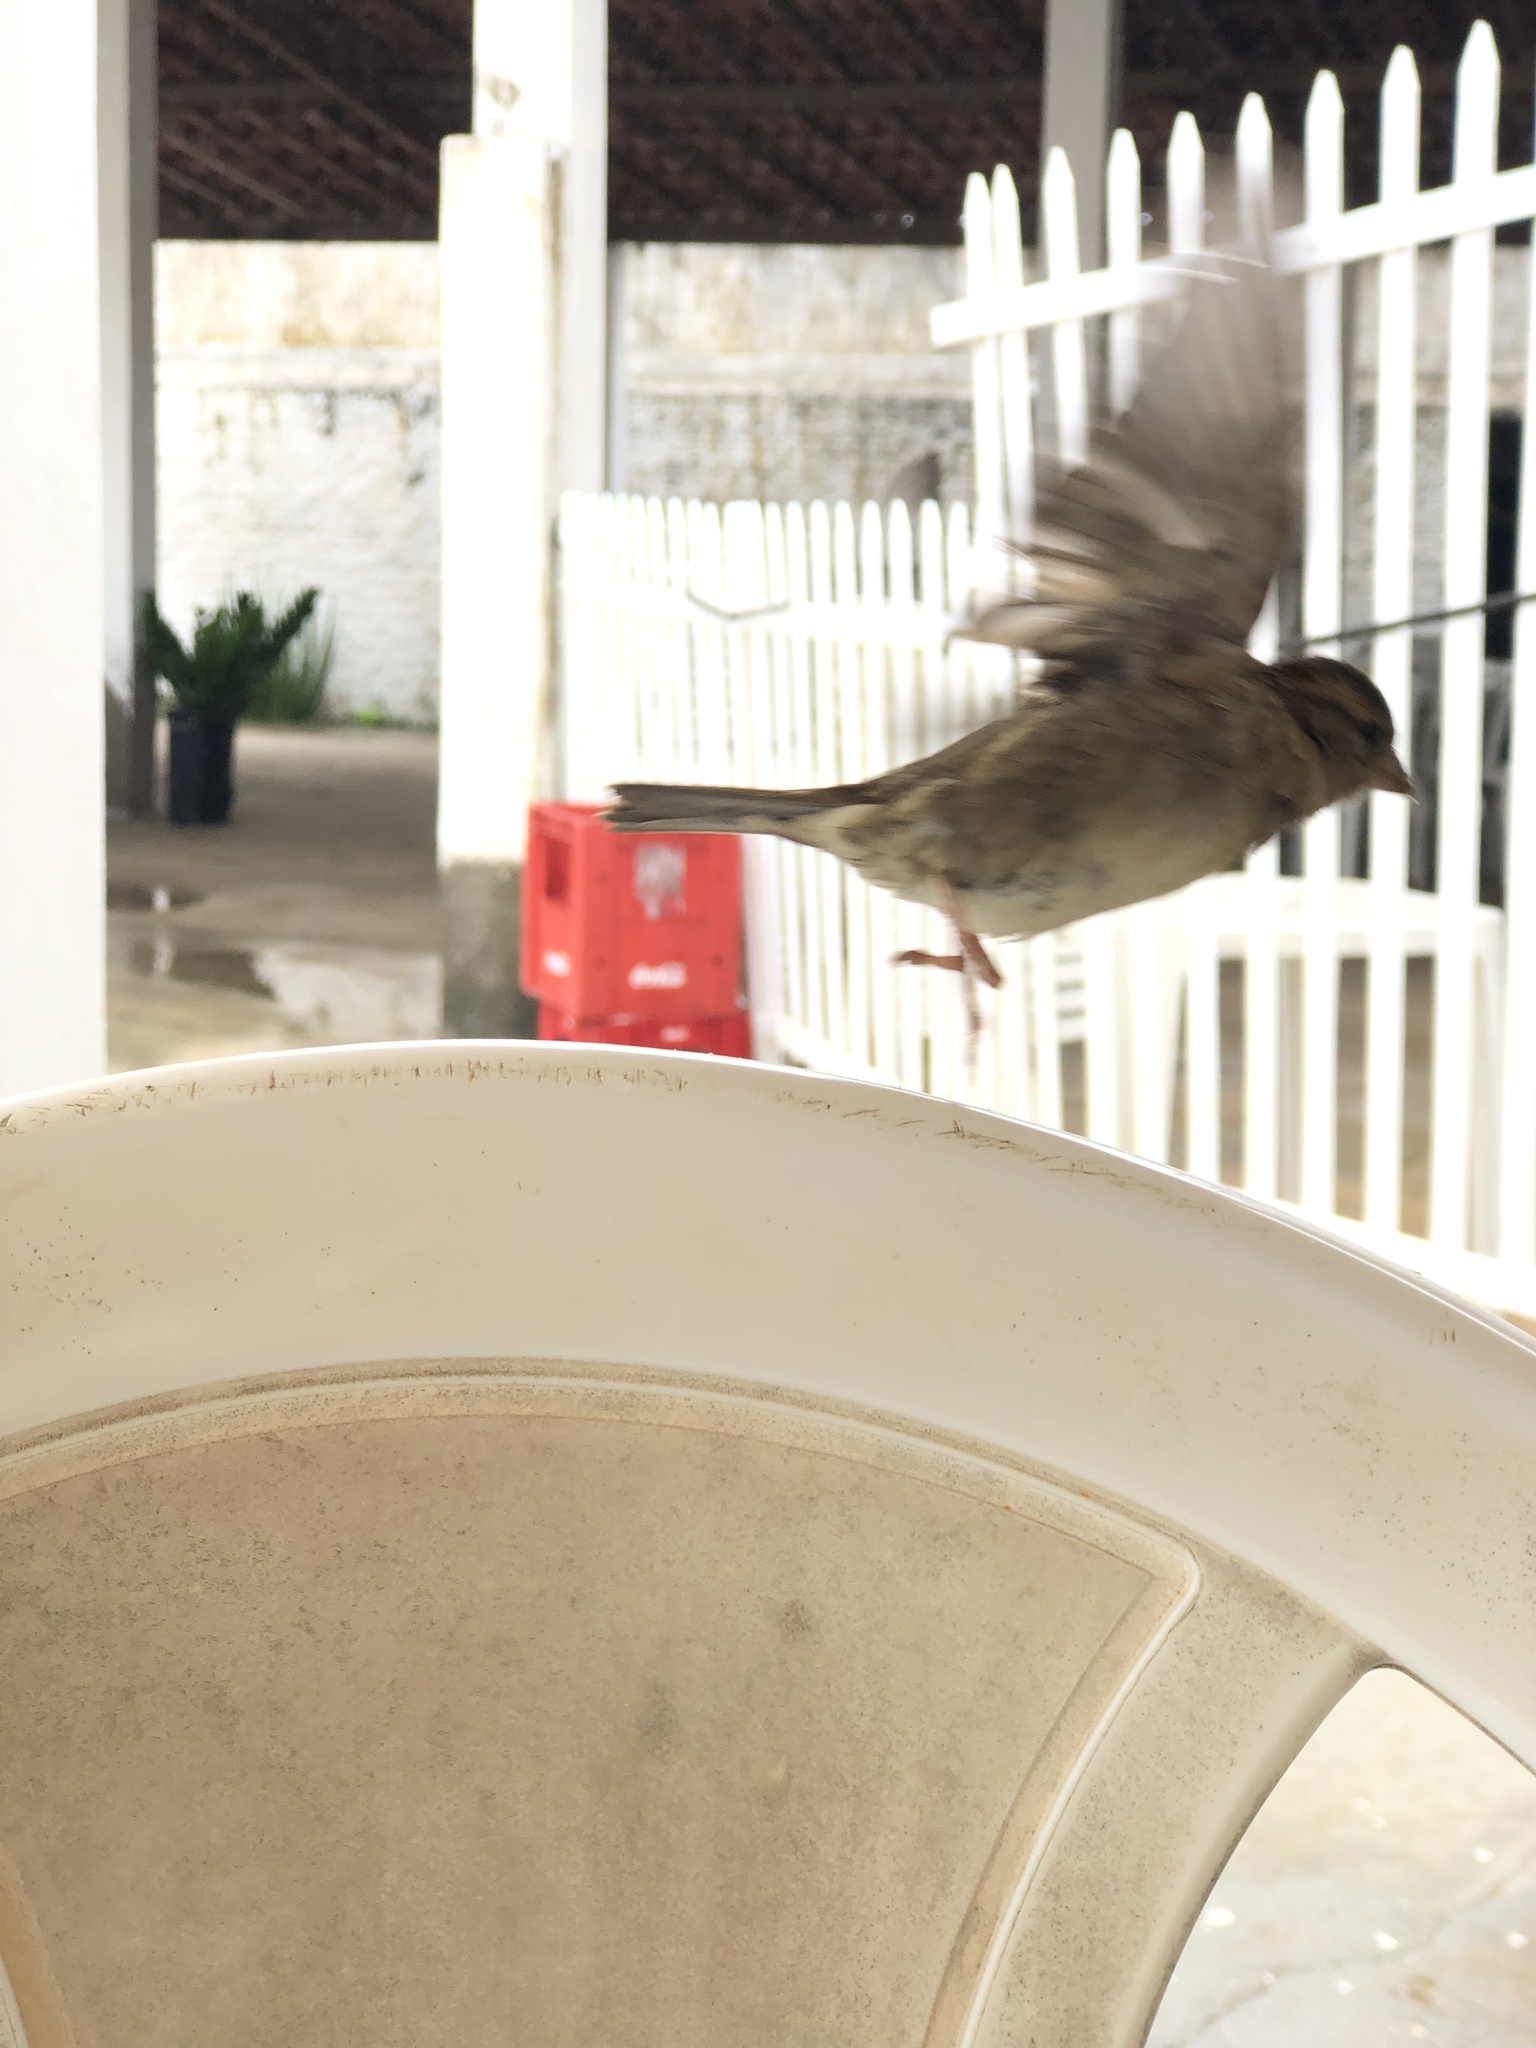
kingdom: Animalia
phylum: Chordata
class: Aves
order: Passeriformes
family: Passeridae
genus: Passer
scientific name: Passer domesticus
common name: House sparrow
